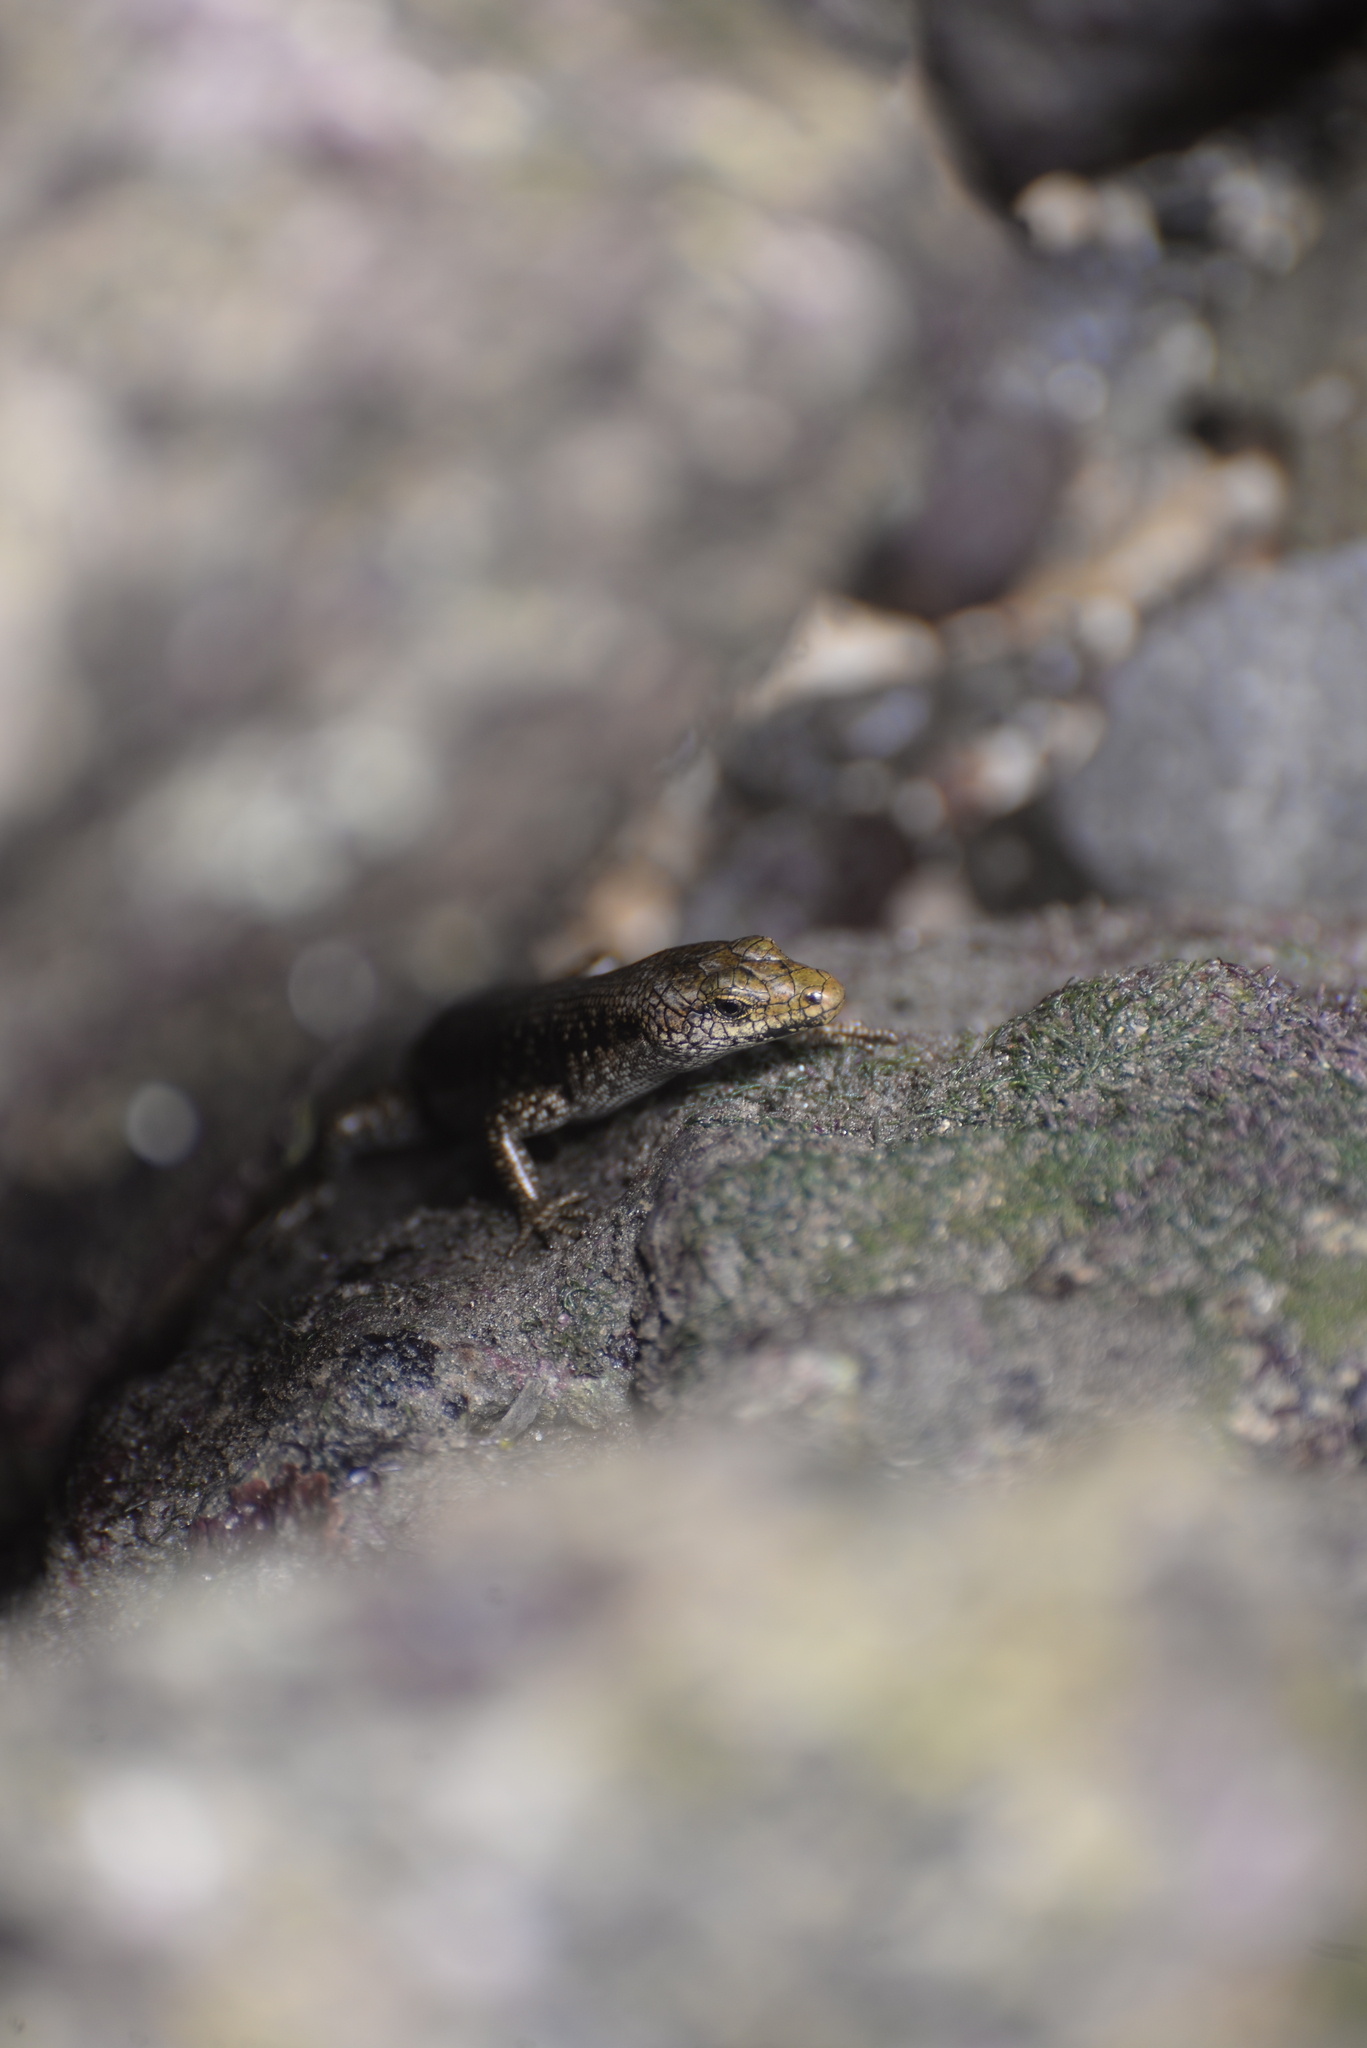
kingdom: Animalia
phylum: Chordata
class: Squamata
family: Scincidae
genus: Emoia
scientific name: Emoia atrocostata
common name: Littoral skink
